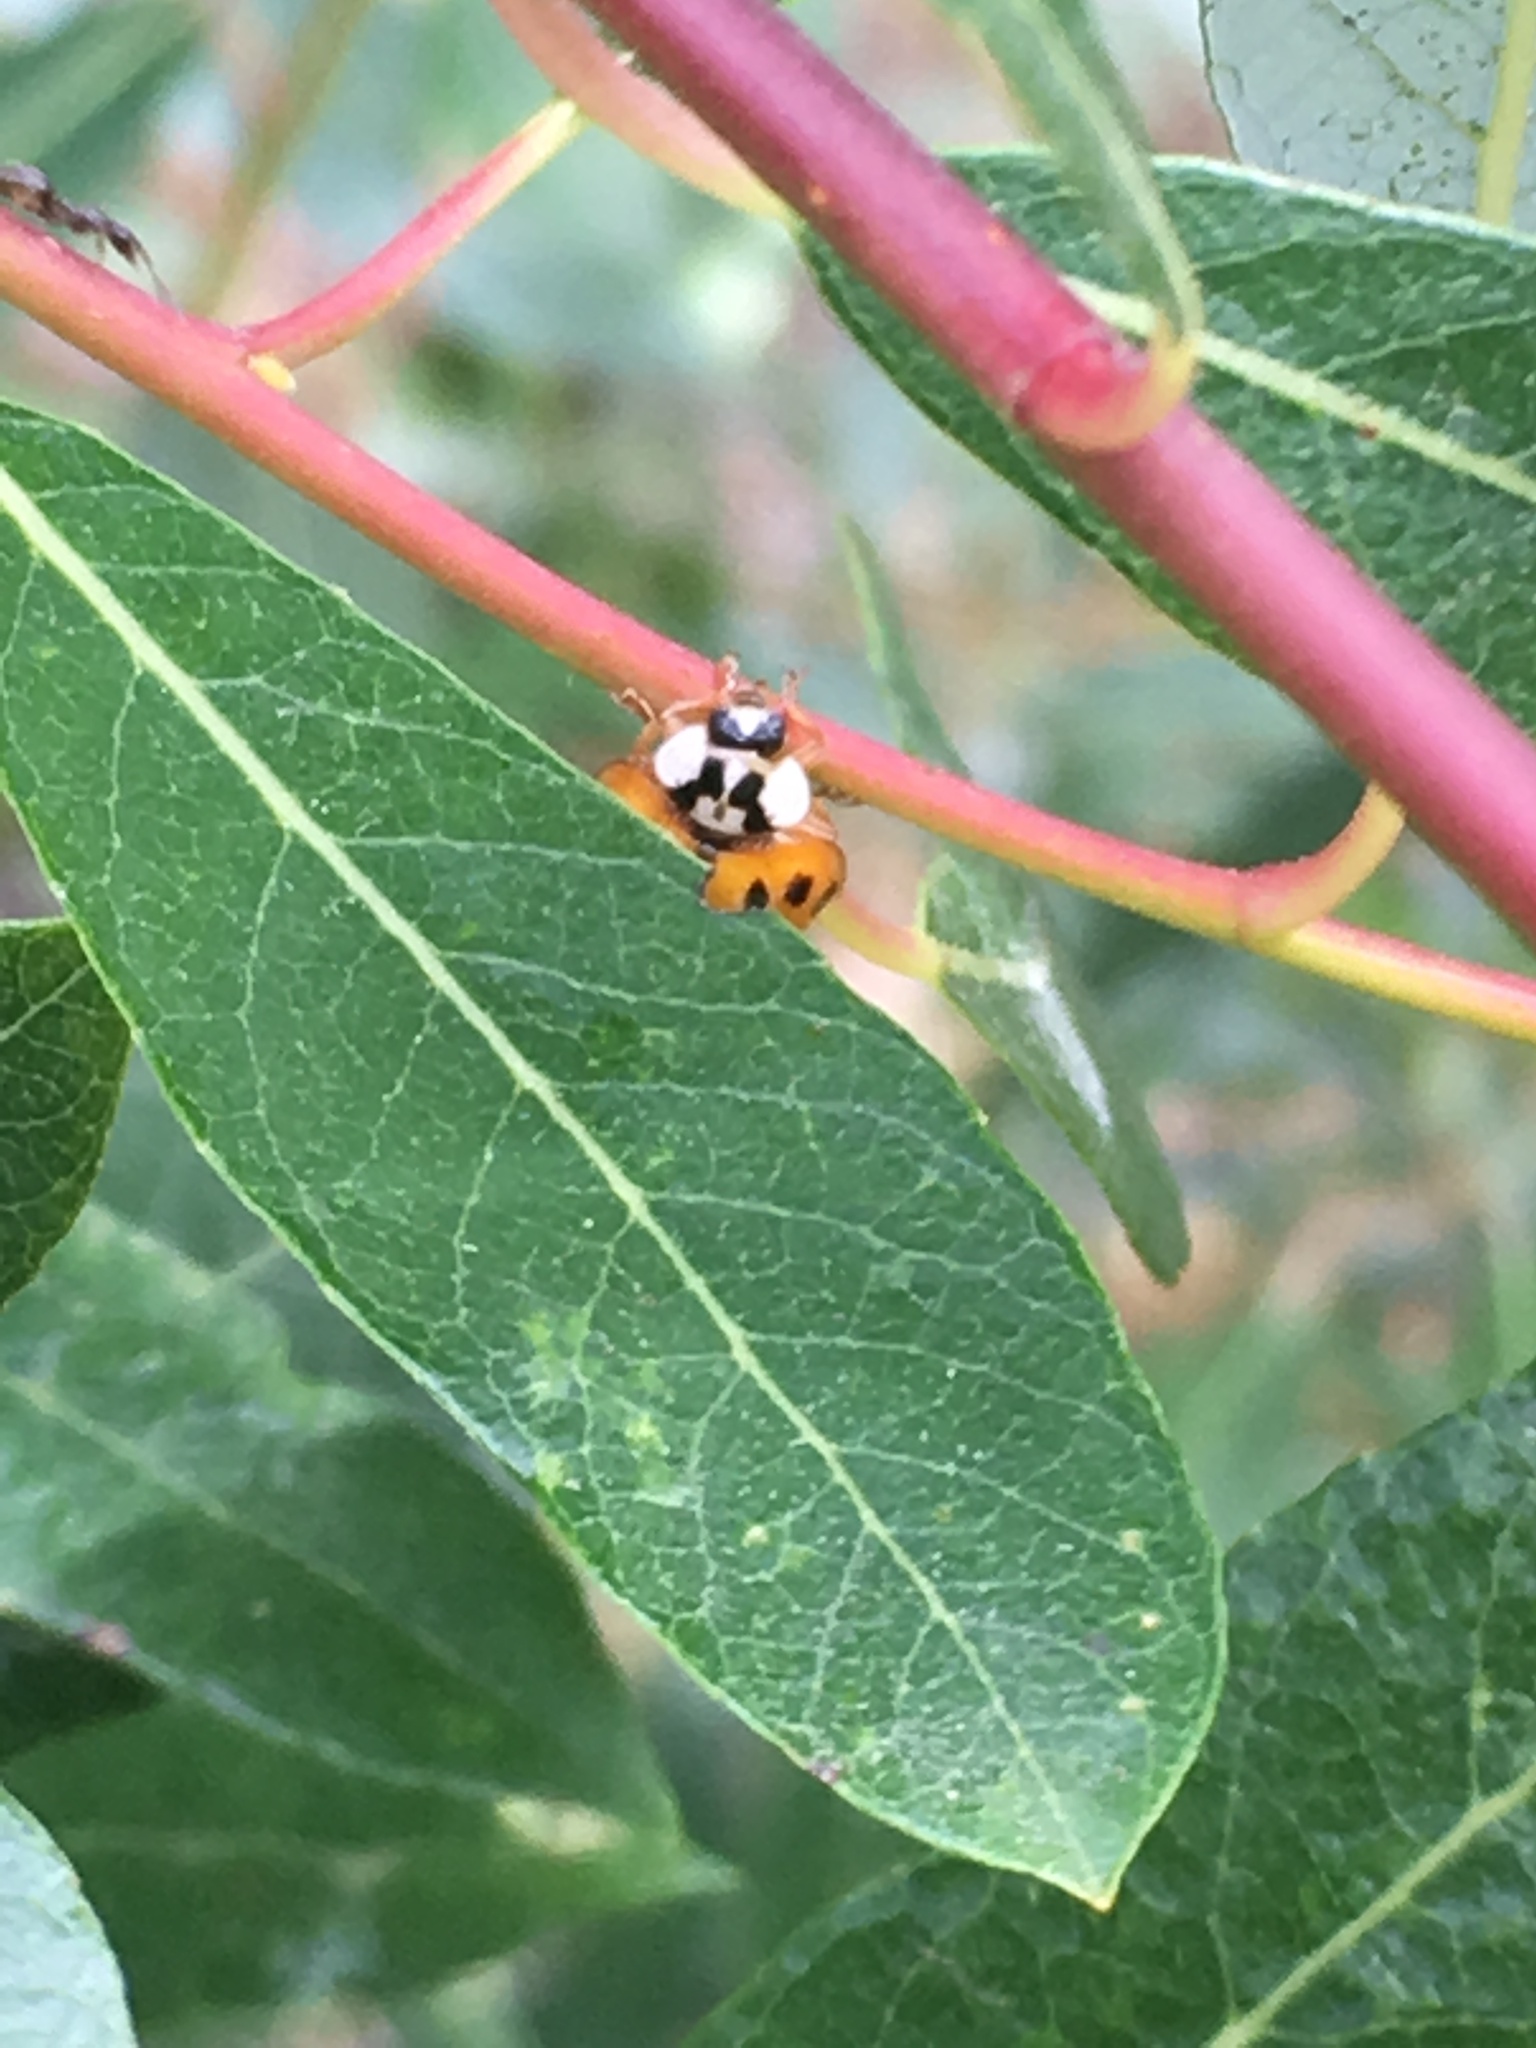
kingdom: Animalia
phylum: Arthropoda
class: Insecta
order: Coleoptera
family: Coccinellidae
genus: Harmonia
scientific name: Harmonia axyridis
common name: Harlequin ladybird
